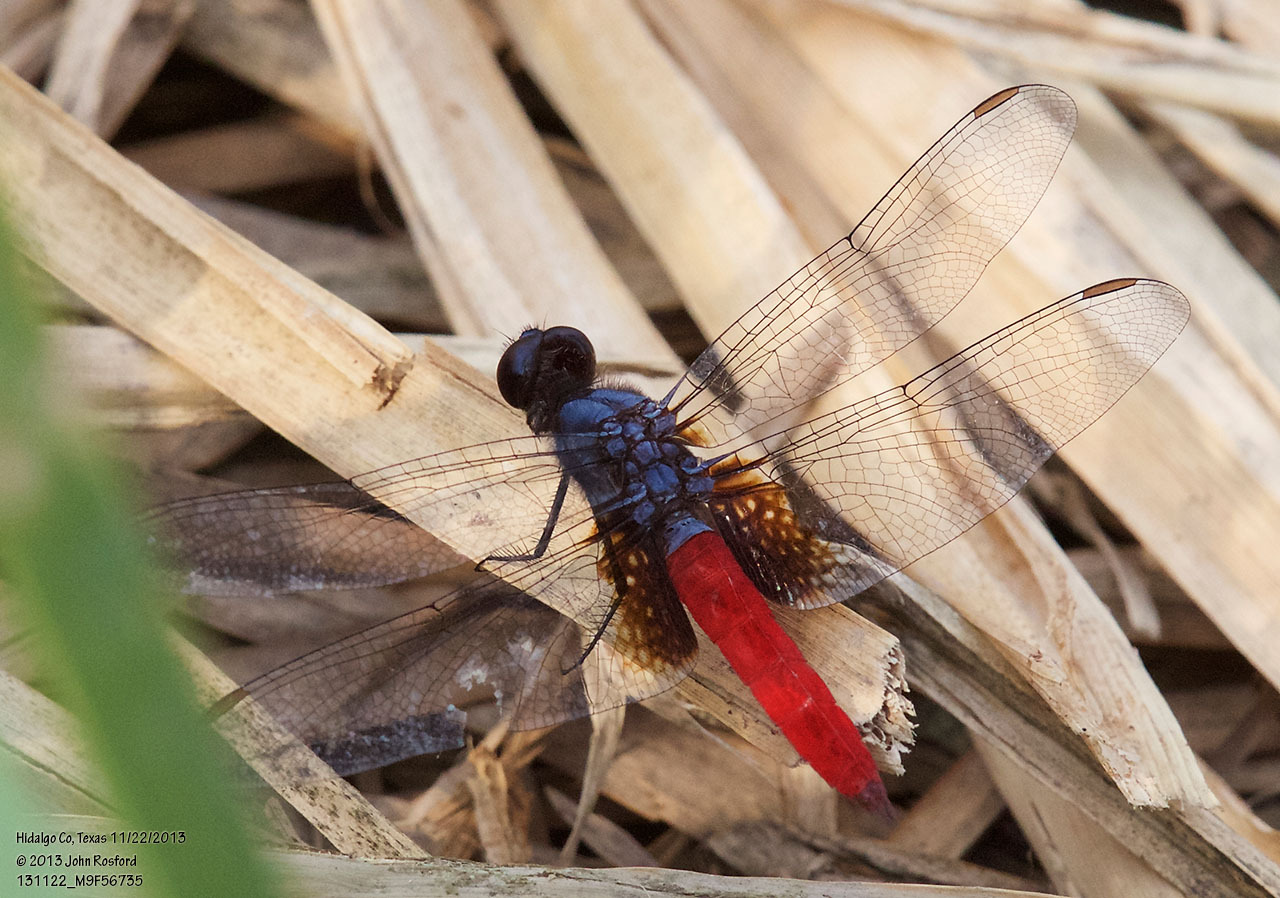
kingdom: Animalia
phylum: Arthropoda
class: Insecta
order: Odonata
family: Libellulidae
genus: Planiplax
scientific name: Planiplax sanguiniventris
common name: Mexican scarlet-tail
